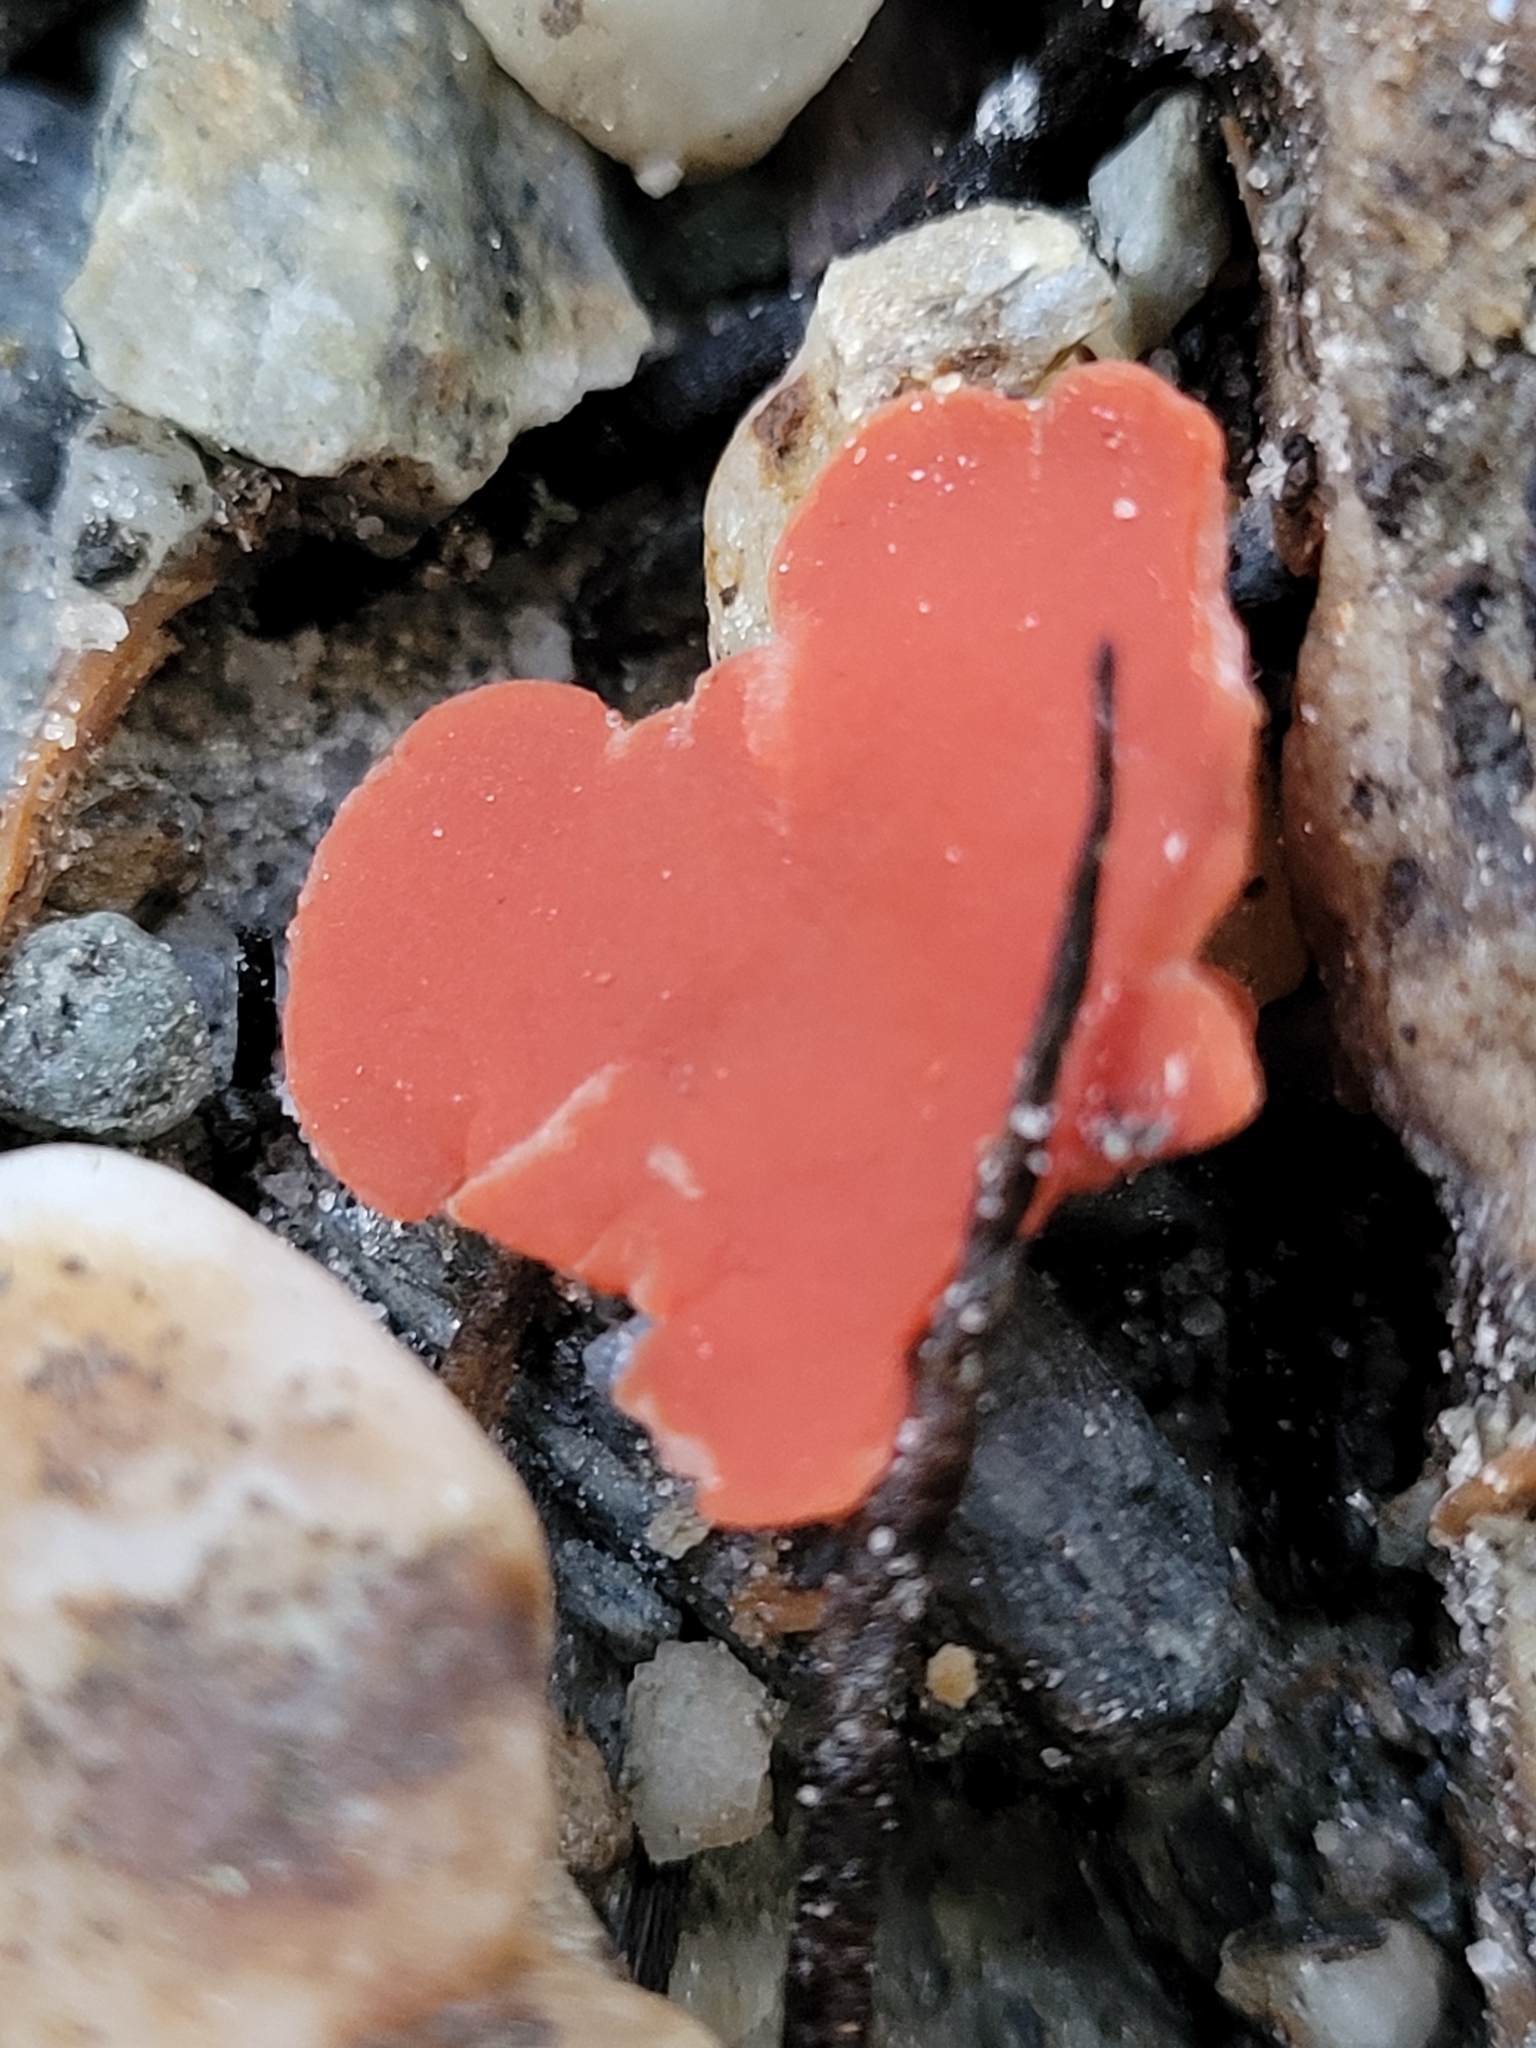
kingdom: Fungi
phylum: Ascomycota
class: Pezizomycetes
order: Pezizales
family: Pyronemataceae
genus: Aleuria
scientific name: Aleuria aurantia
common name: Orange peel fungus
